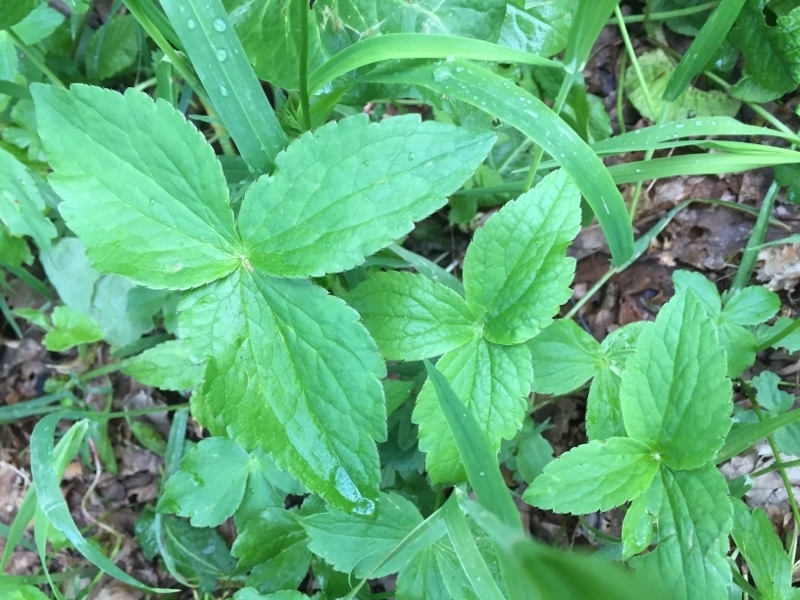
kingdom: Plantae
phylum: Tracheophyta
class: Magnoliopsida
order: Apiales
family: Apiaceae
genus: Astrantia
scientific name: Astrantia maxima
